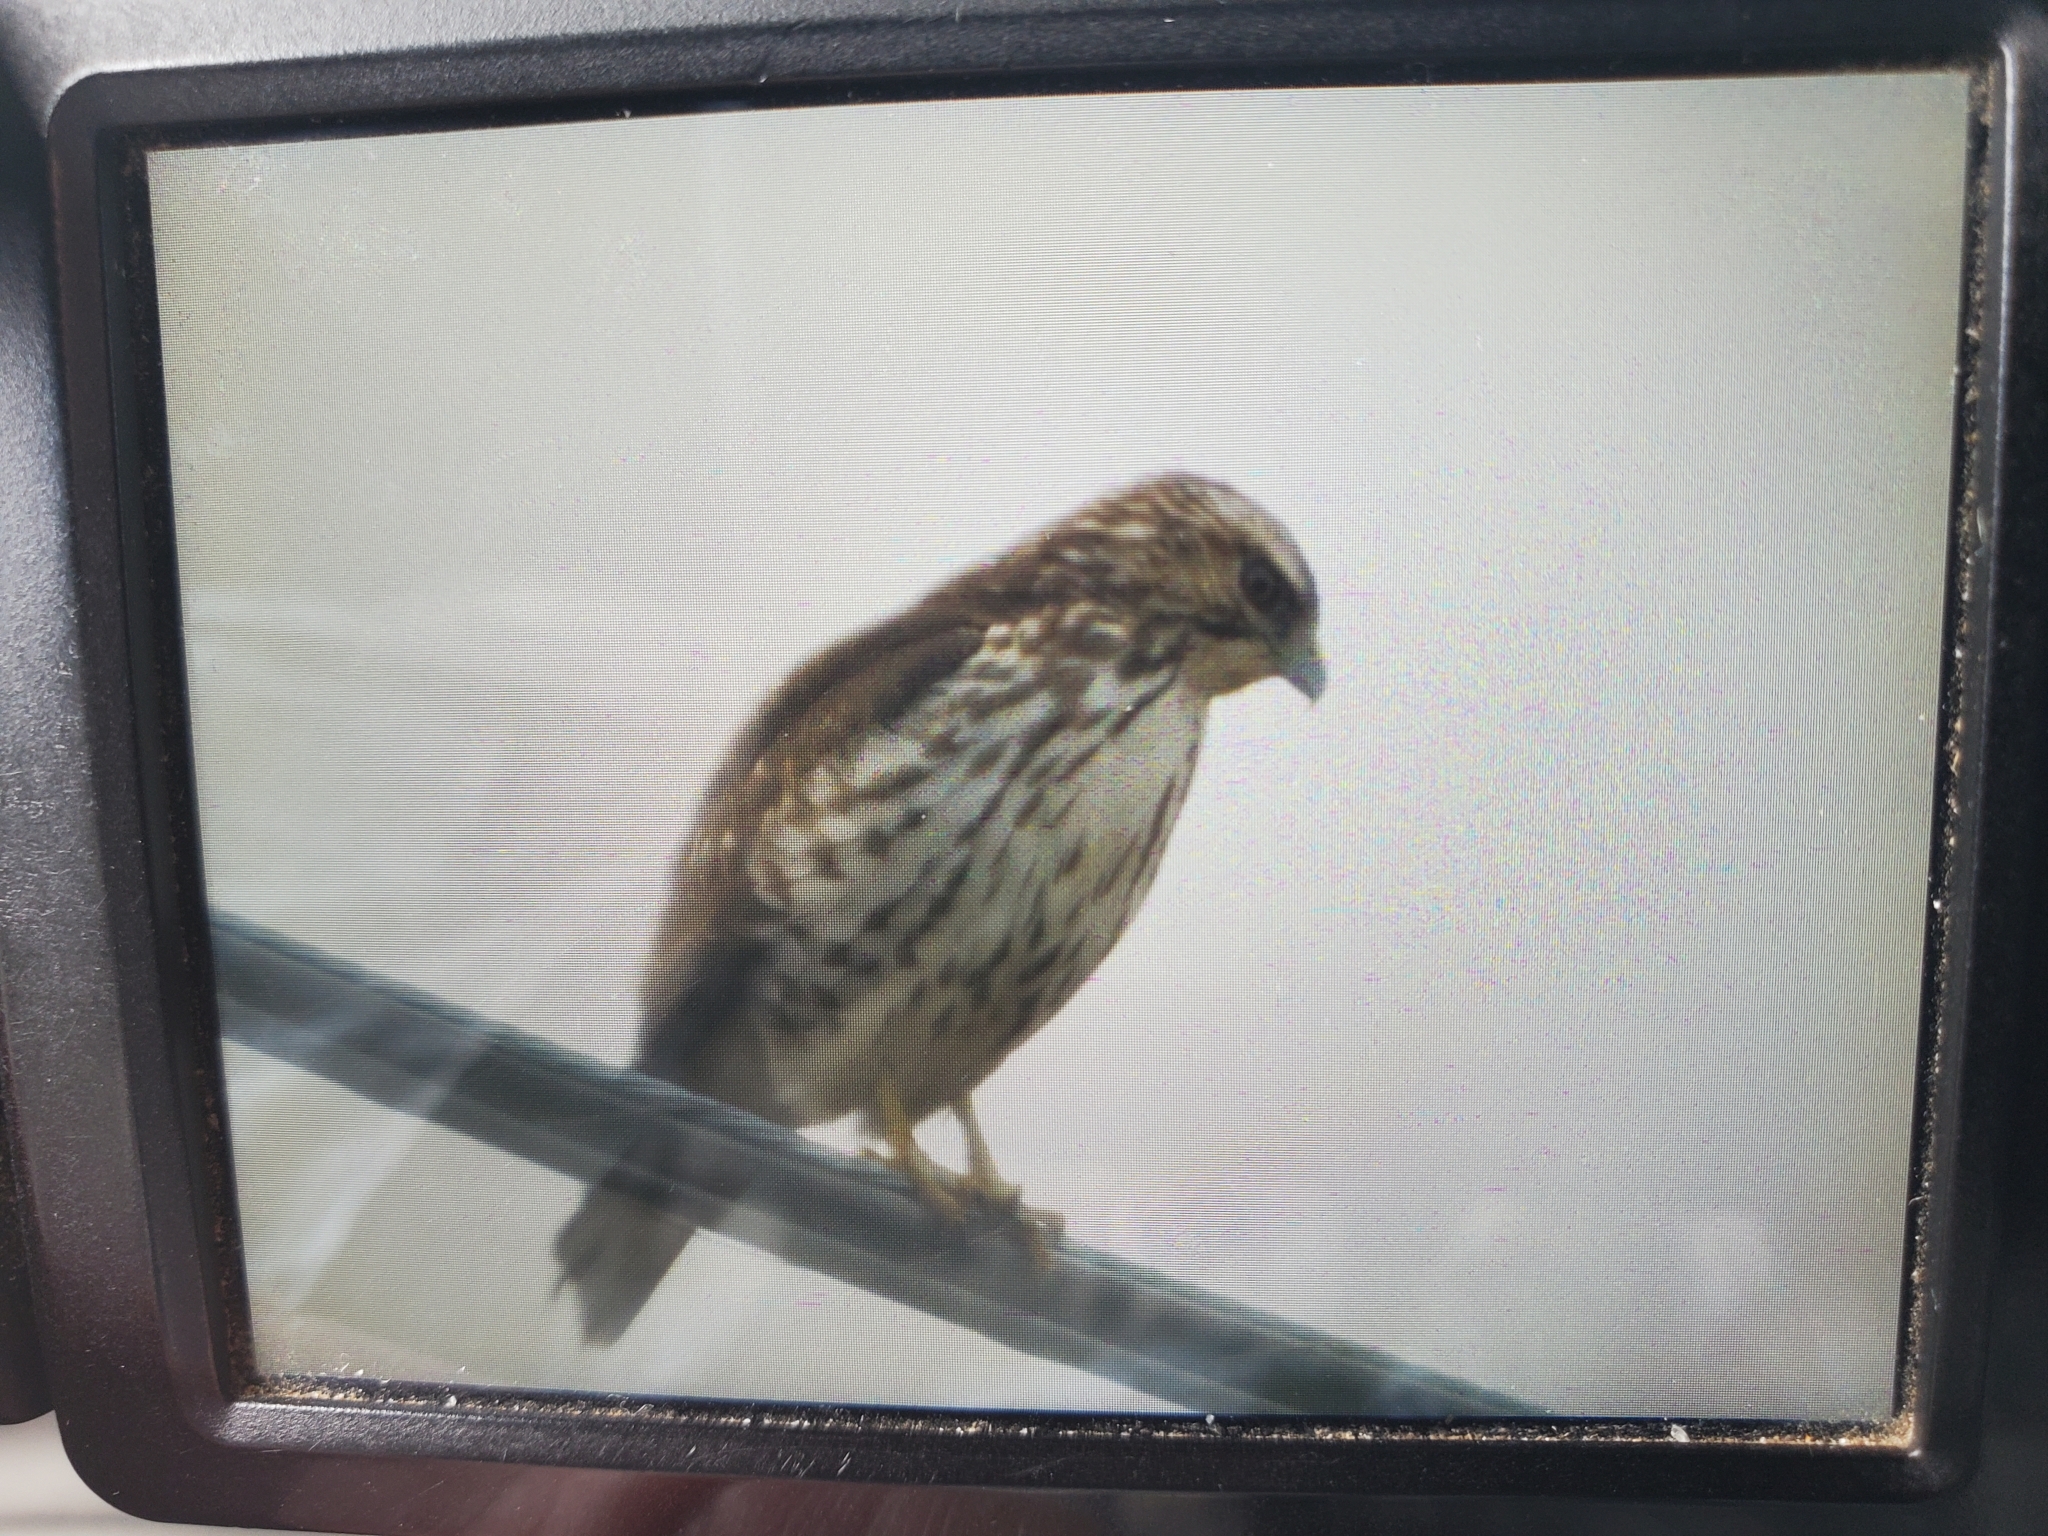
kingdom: Animalia
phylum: Chordata
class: Aves
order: Accipitriformes
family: Accipitridae
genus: Buteo
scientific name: Buteo lineatus
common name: Red-shouldered hawk
